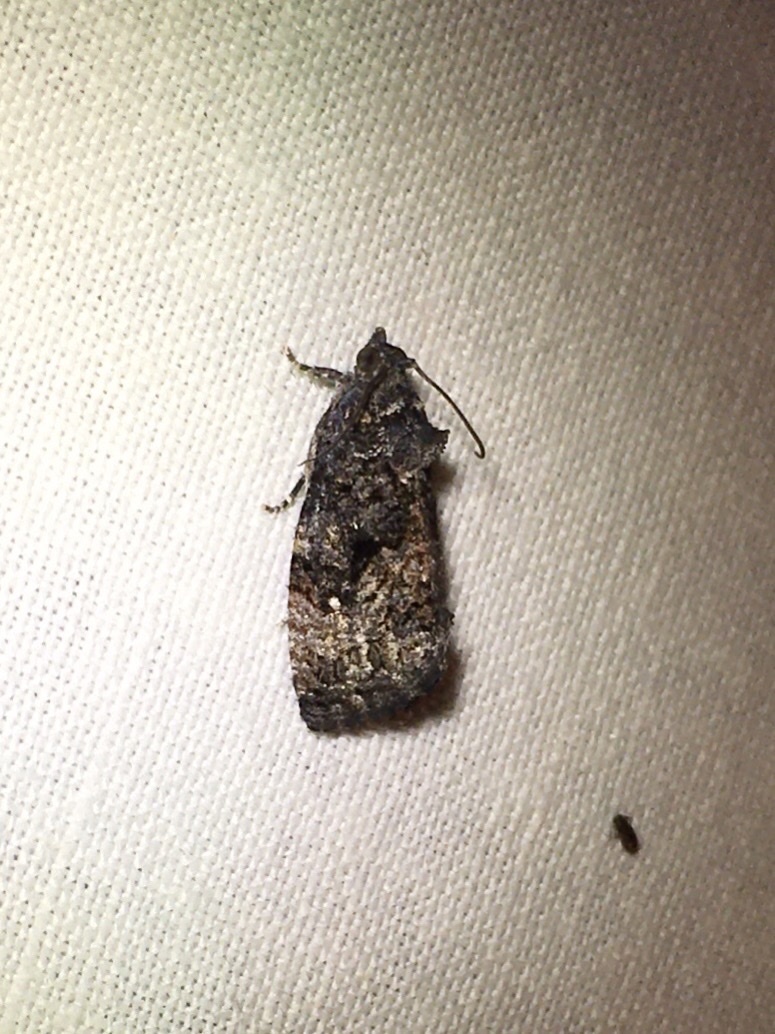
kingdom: Animalia
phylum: Arthropoda
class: Insecta
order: Lepidoptera
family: Tortricidae
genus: Gymnandrosoma
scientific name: Gymnandrosoma punctidiscanum
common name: Dotted ecdytolopha moth
